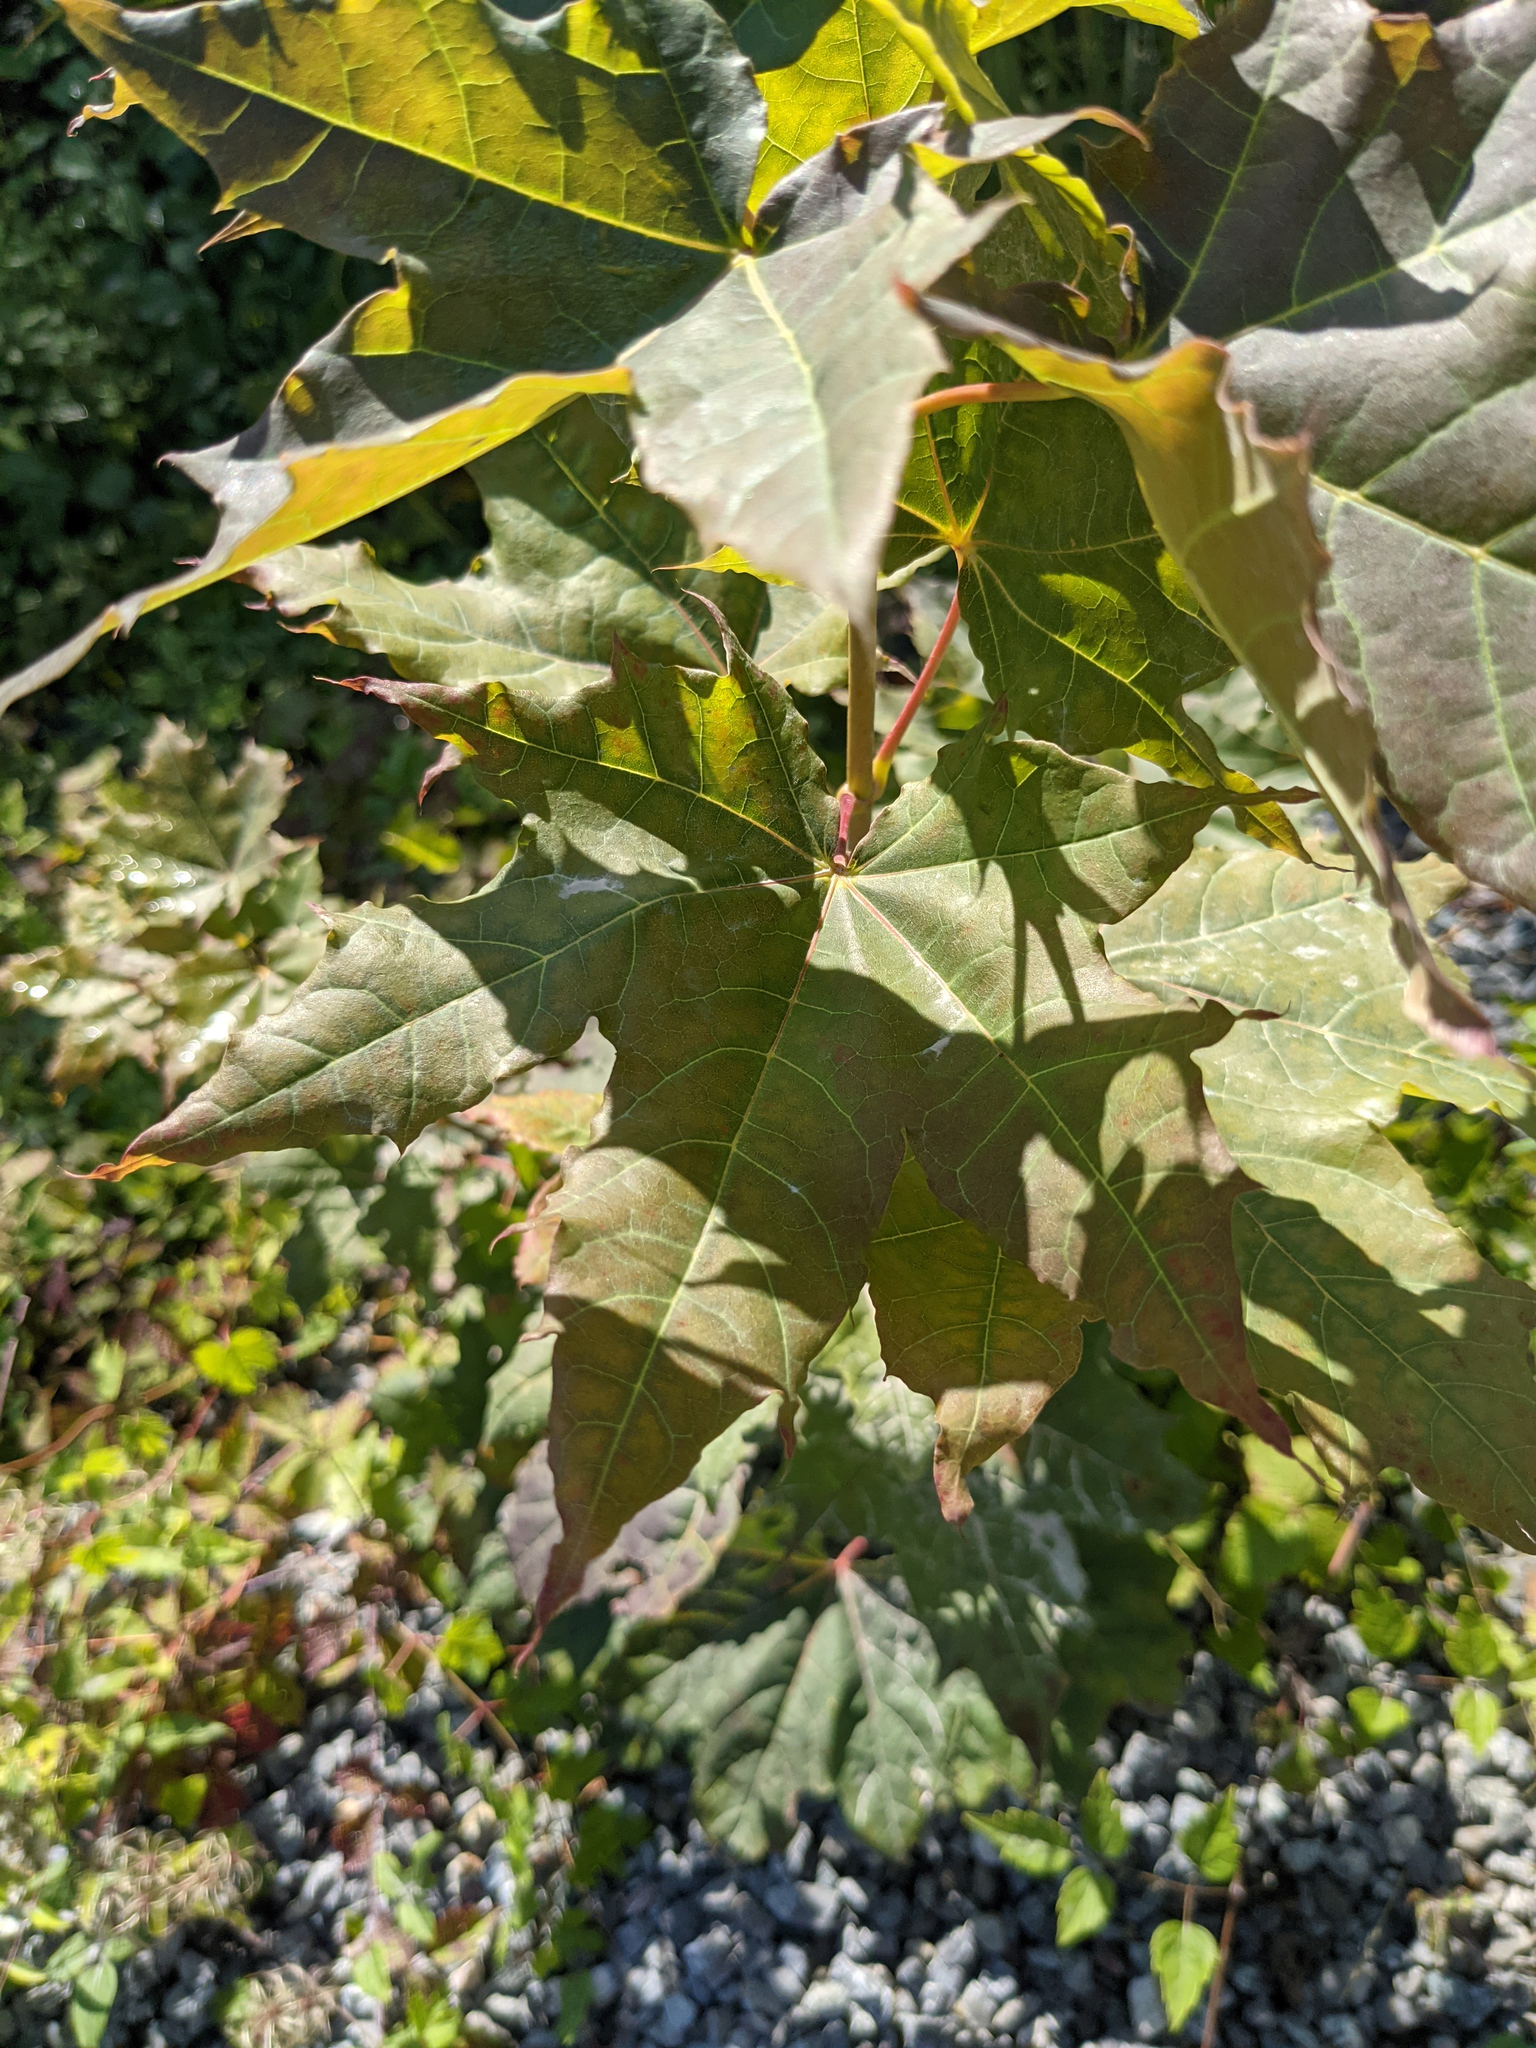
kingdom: Plantae
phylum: Tracheophyta
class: Magnoliopsida
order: Sapindales
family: Sapindaceae
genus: Acer
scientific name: Acer platanoides
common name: Norway maple
